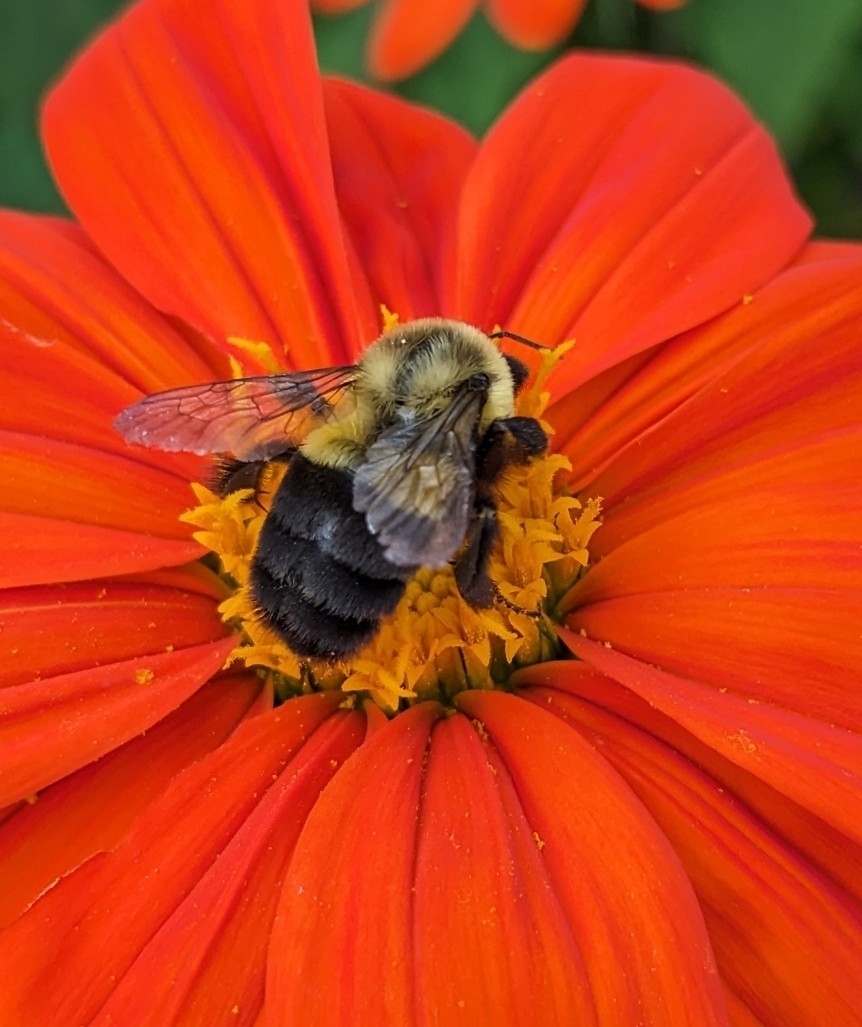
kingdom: Animalia
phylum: Arthropoda
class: Insecta
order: Hymenoptera
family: Apidae
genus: Bombus
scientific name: Bombus impatiens
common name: Common eastern bumble bee
